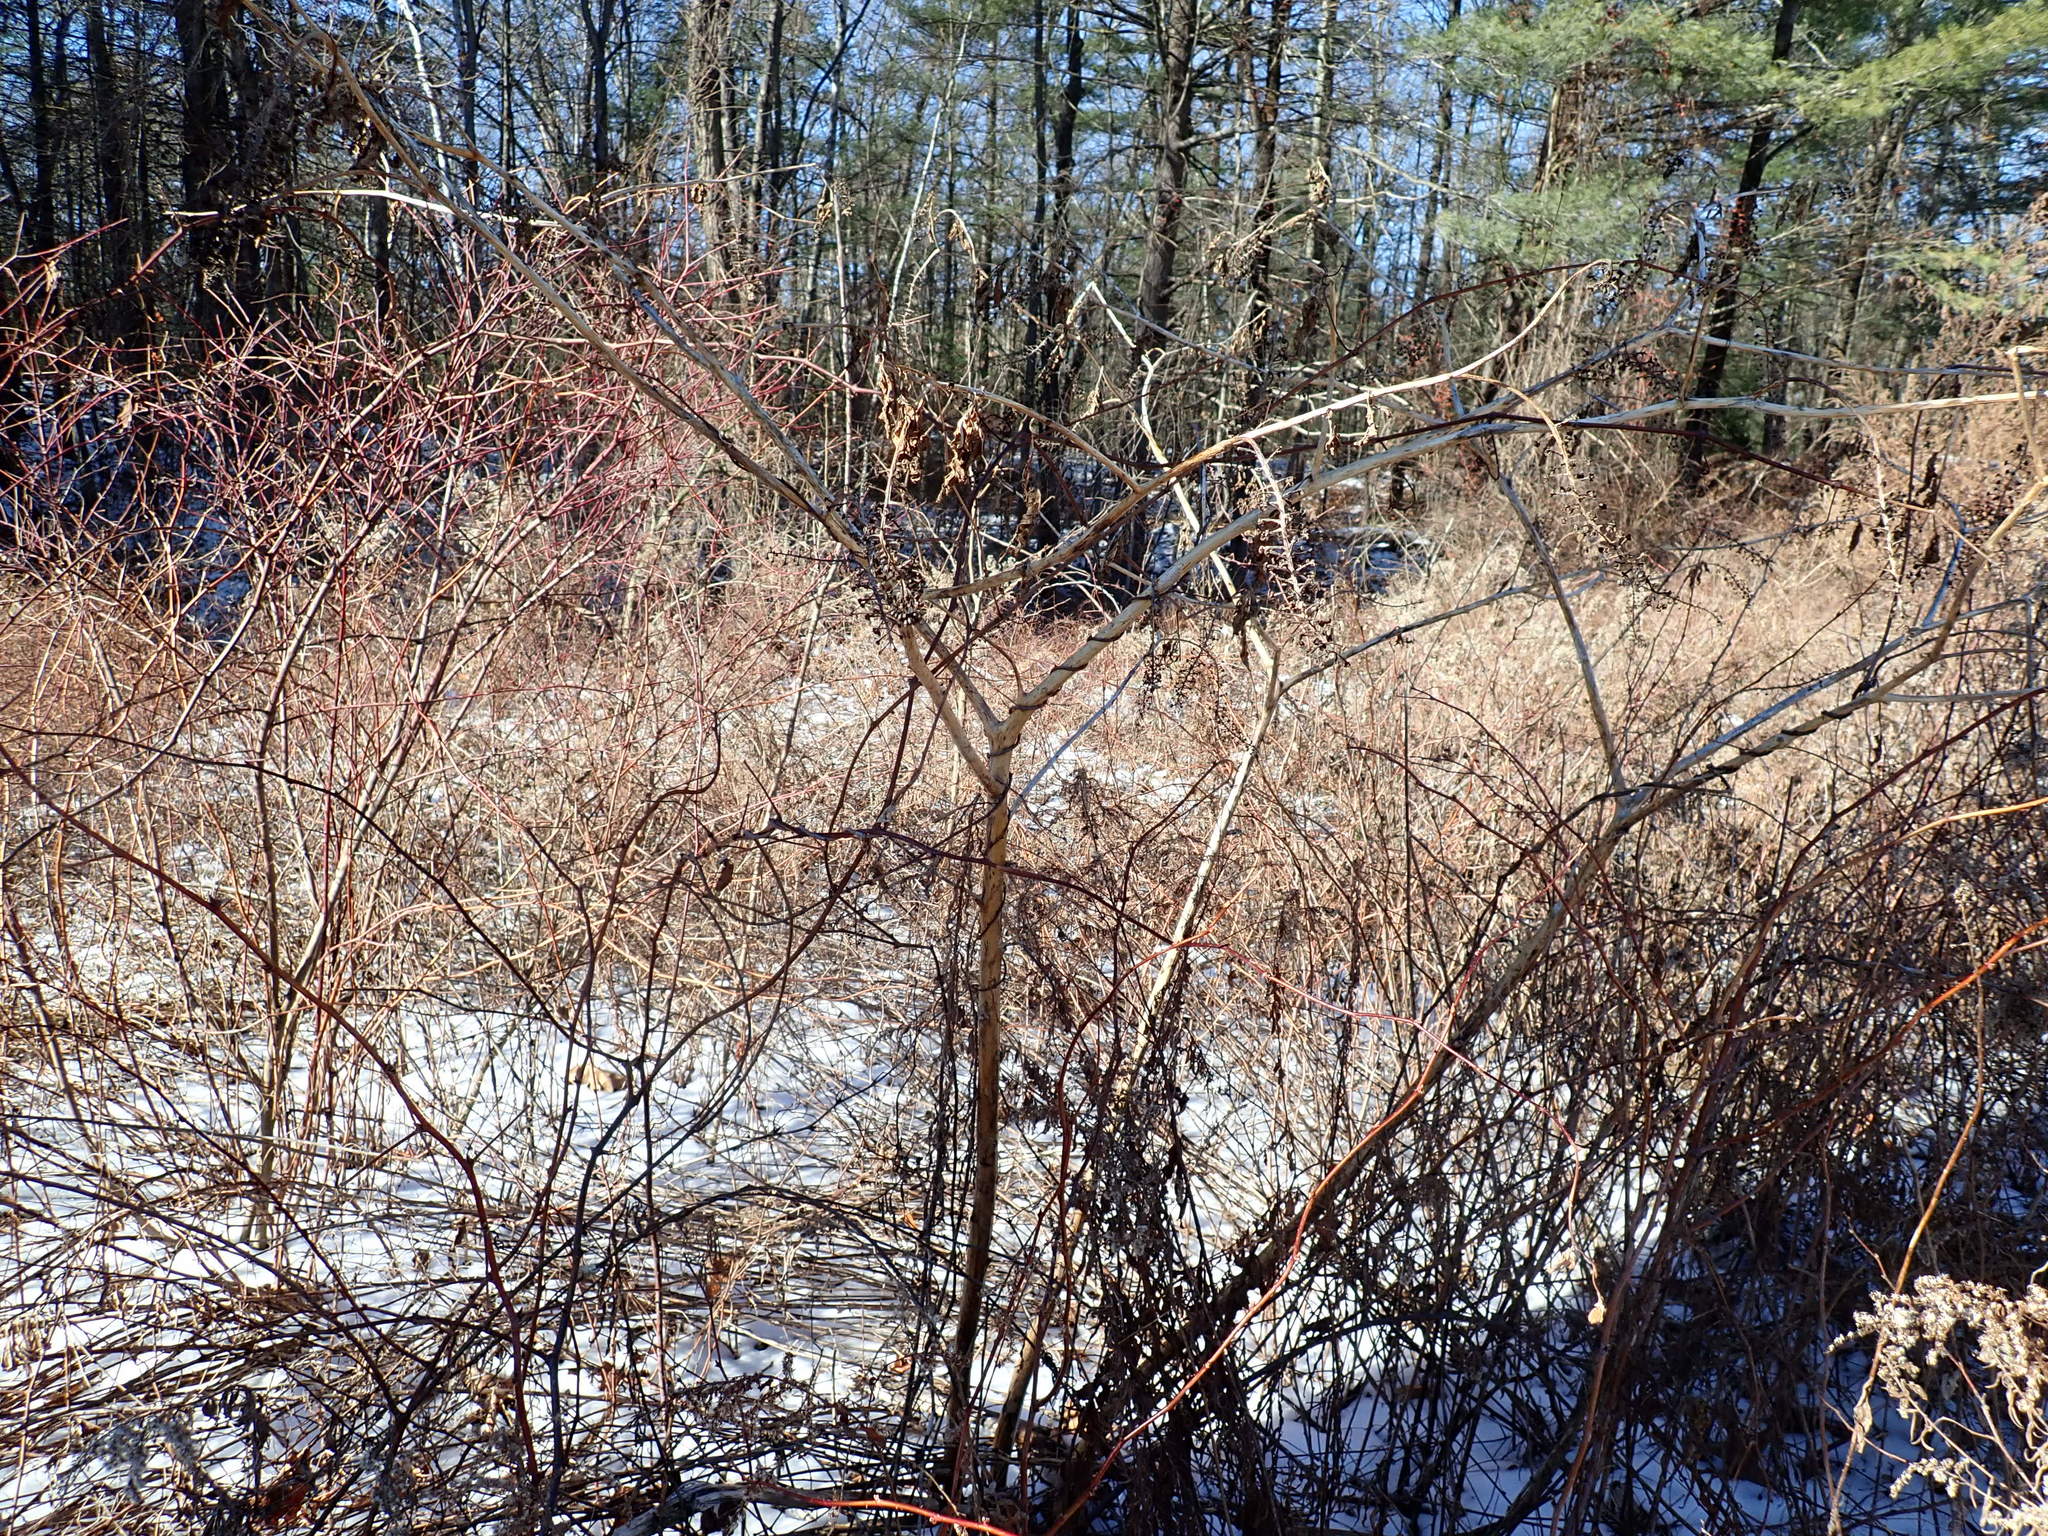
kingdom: Plantae
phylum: Tracheophyta
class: Magnoliopsida
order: Caryophyllales
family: Phytolaccaceae
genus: Phytolacca
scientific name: Phytolacca americana
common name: American pokeweed
